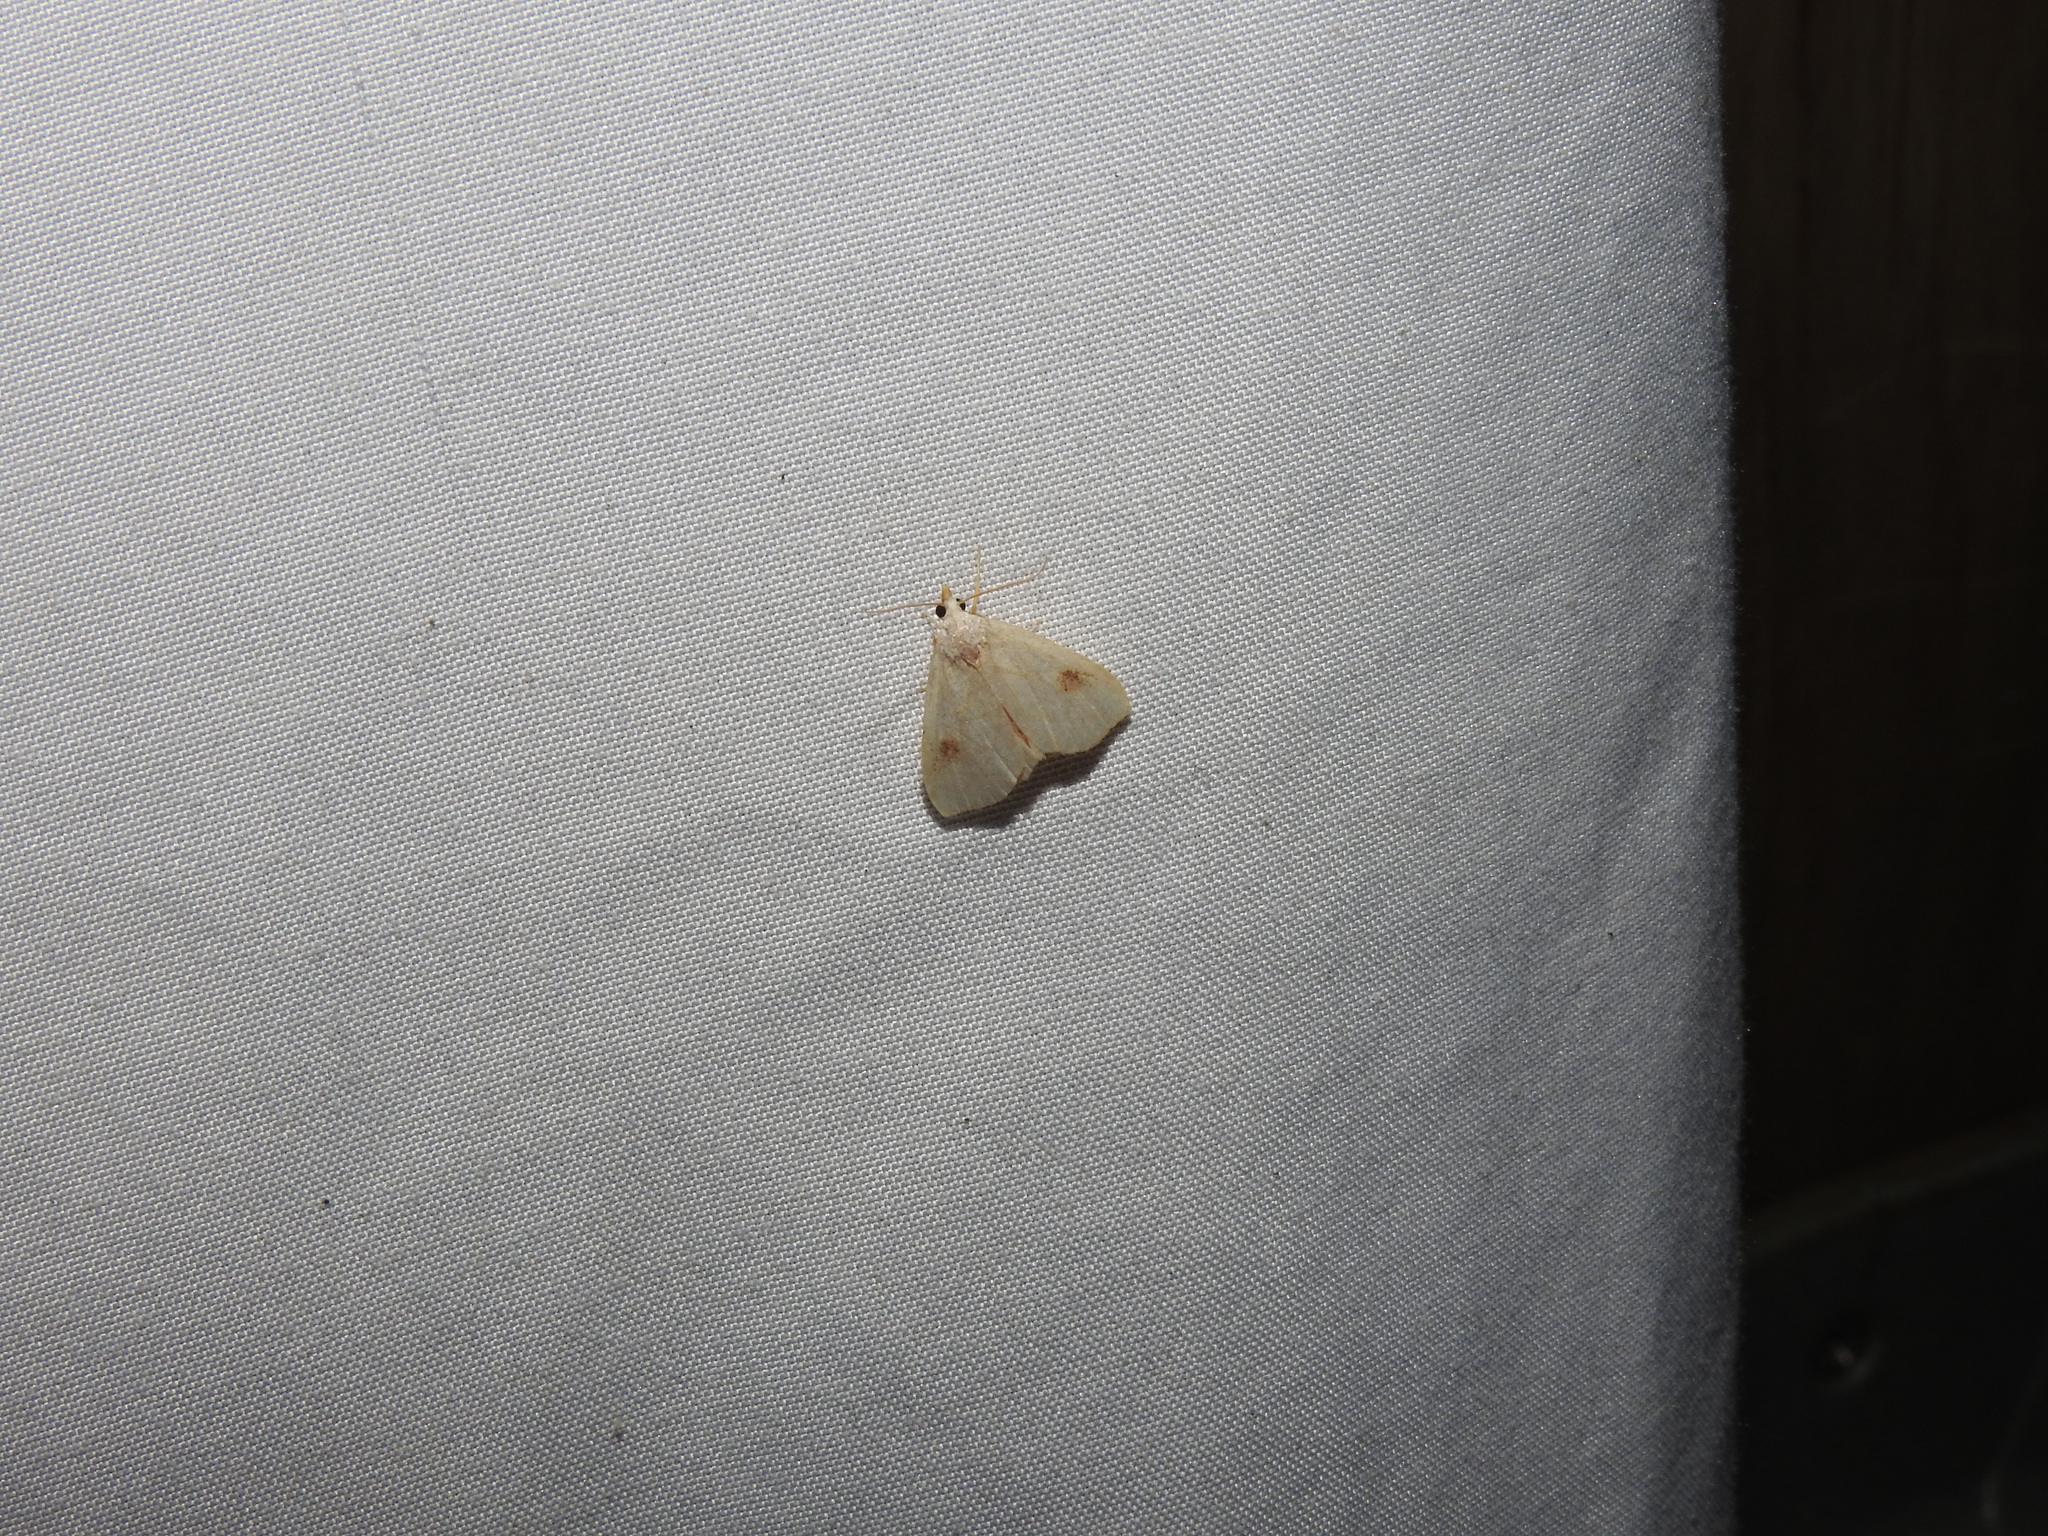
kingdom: Animalia
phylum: Arthropoda
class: Insecta
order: Lepidoptera
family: Erebidae
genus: Rivula
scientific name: Rivula propinqualis
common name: Spotted grass moth
